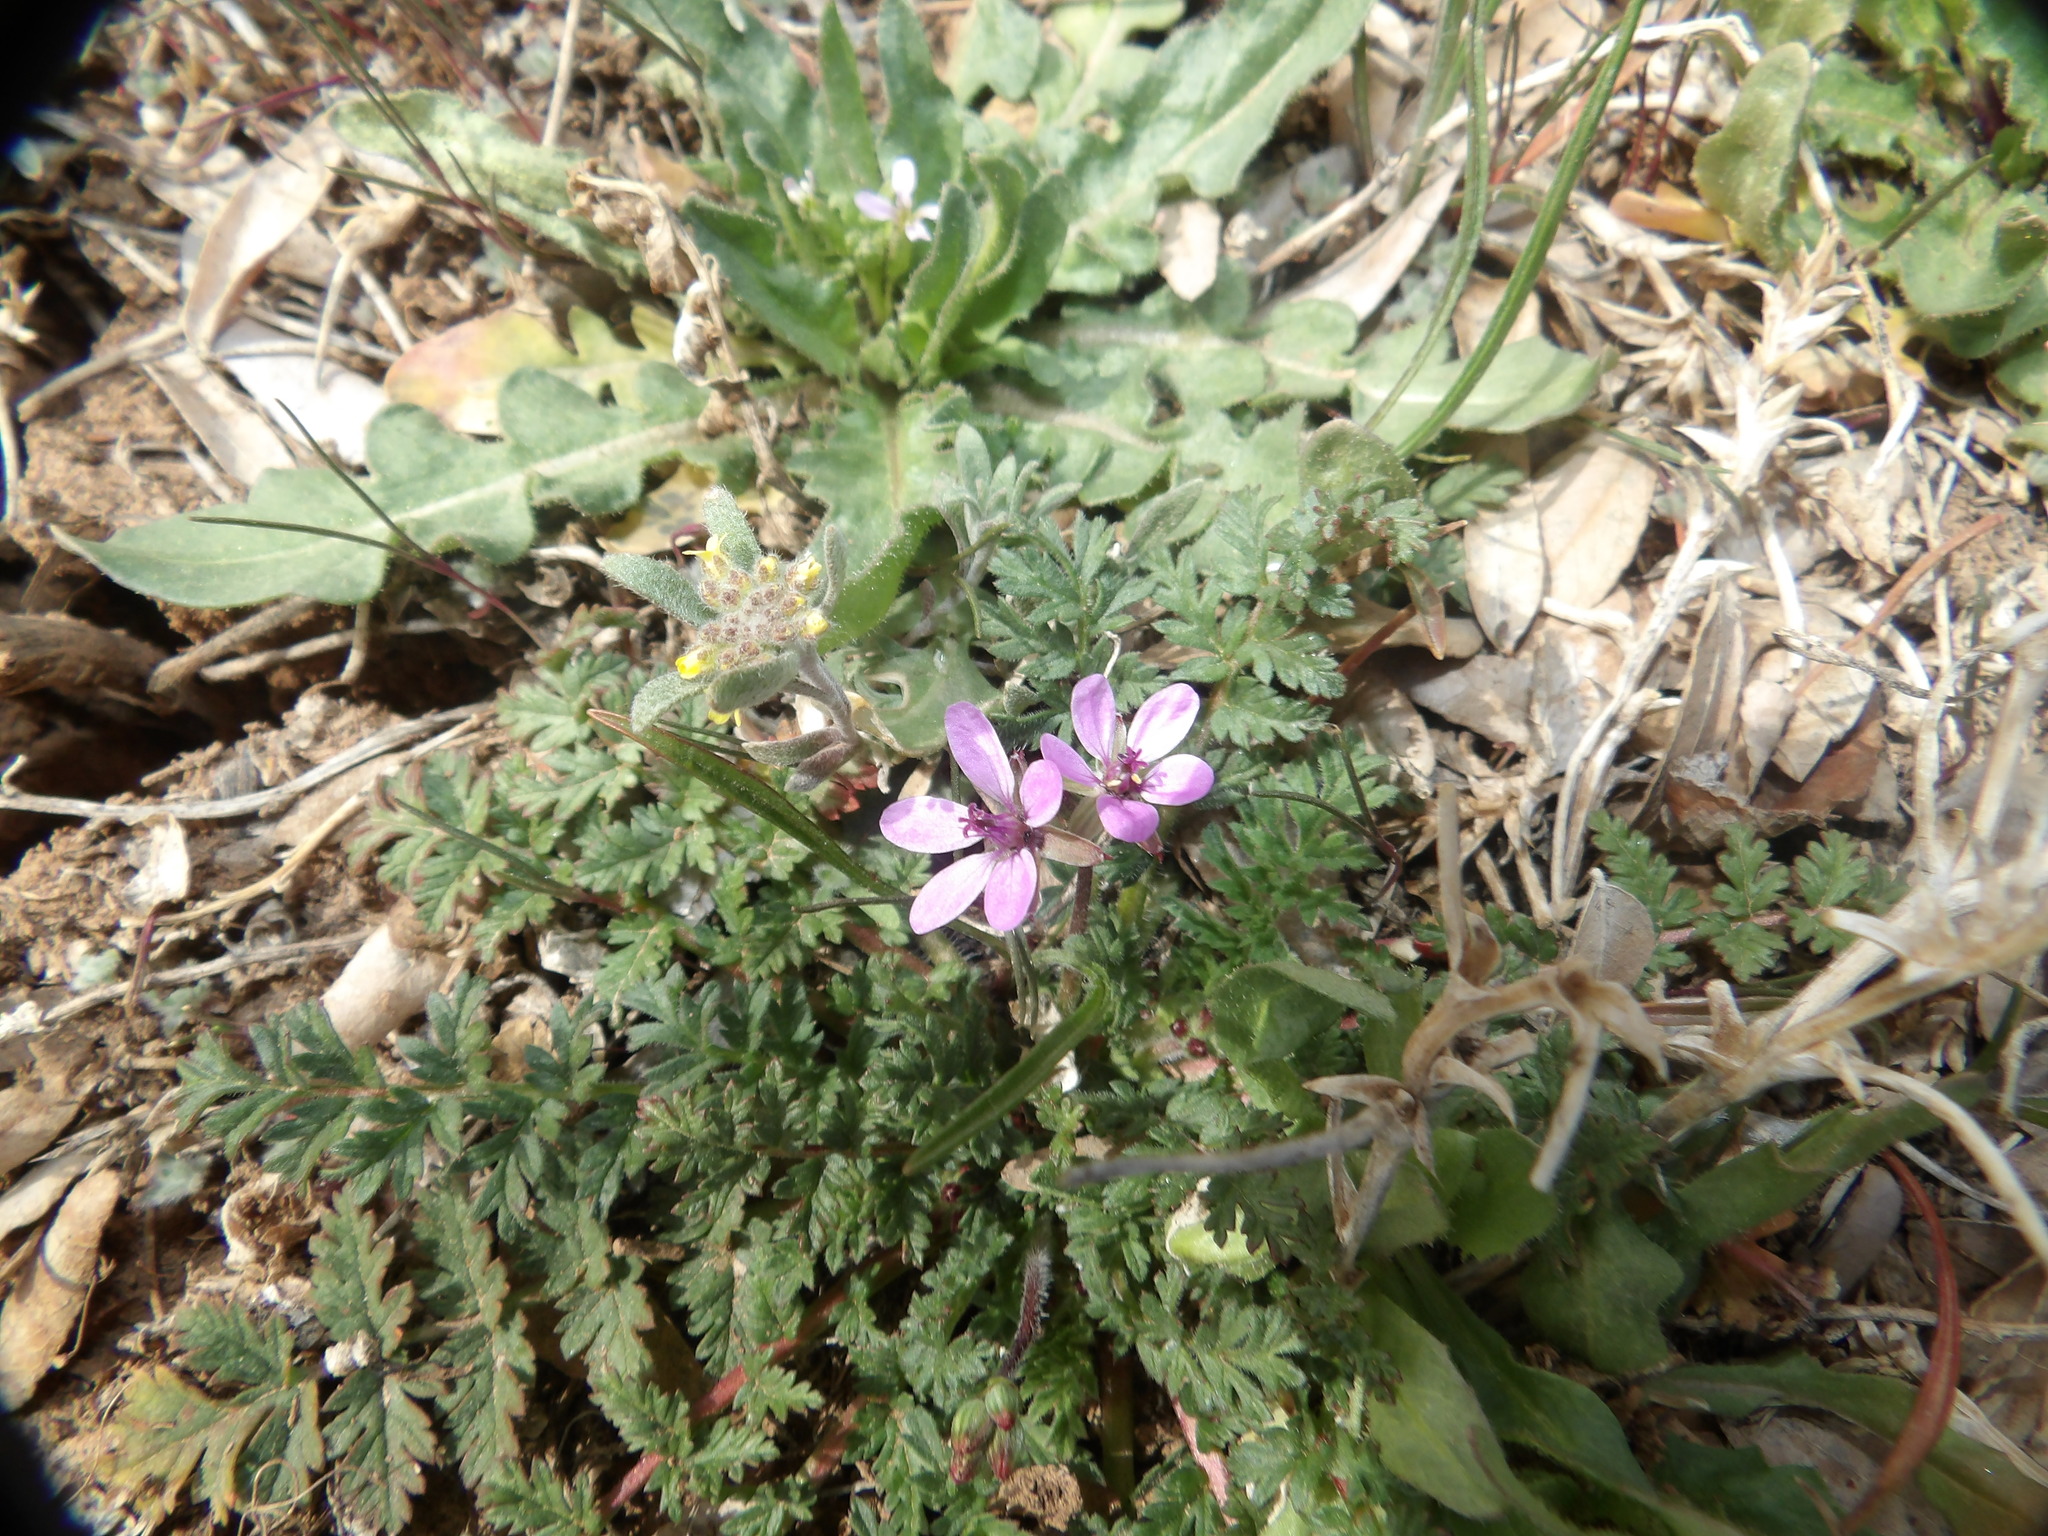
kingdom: Plantae
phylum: Tracheophyta
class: Magnoliopsida
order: Geraniales
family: Geraniaceae
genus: Erodium
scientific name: Erodium cicutarium
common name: Common stork's-bill
